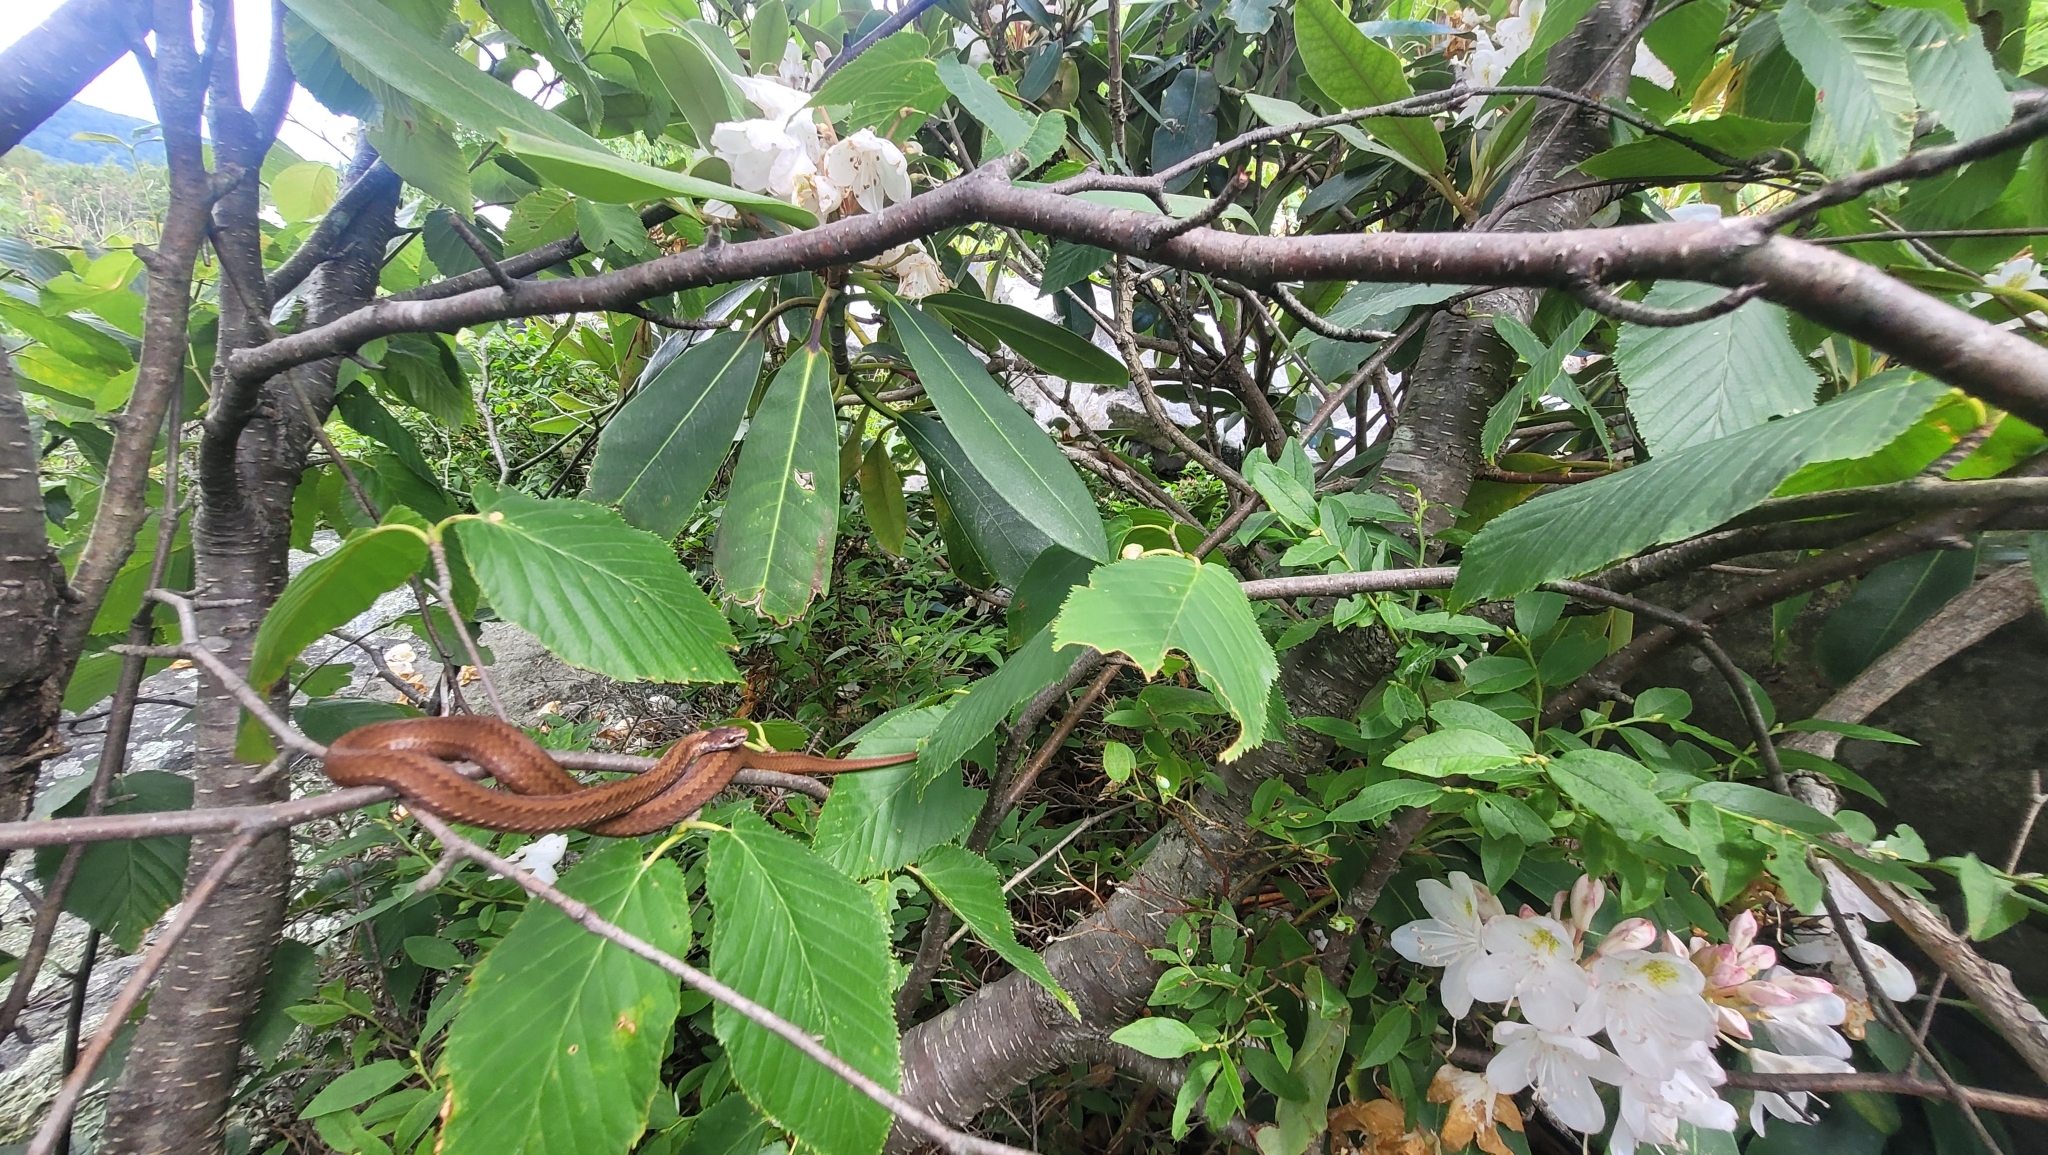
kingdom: Animalia
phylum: Chordata
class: Squamata
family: Colubridae
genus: Storeria
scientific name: Storeria occipitomaculata
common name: Redbelly snake
